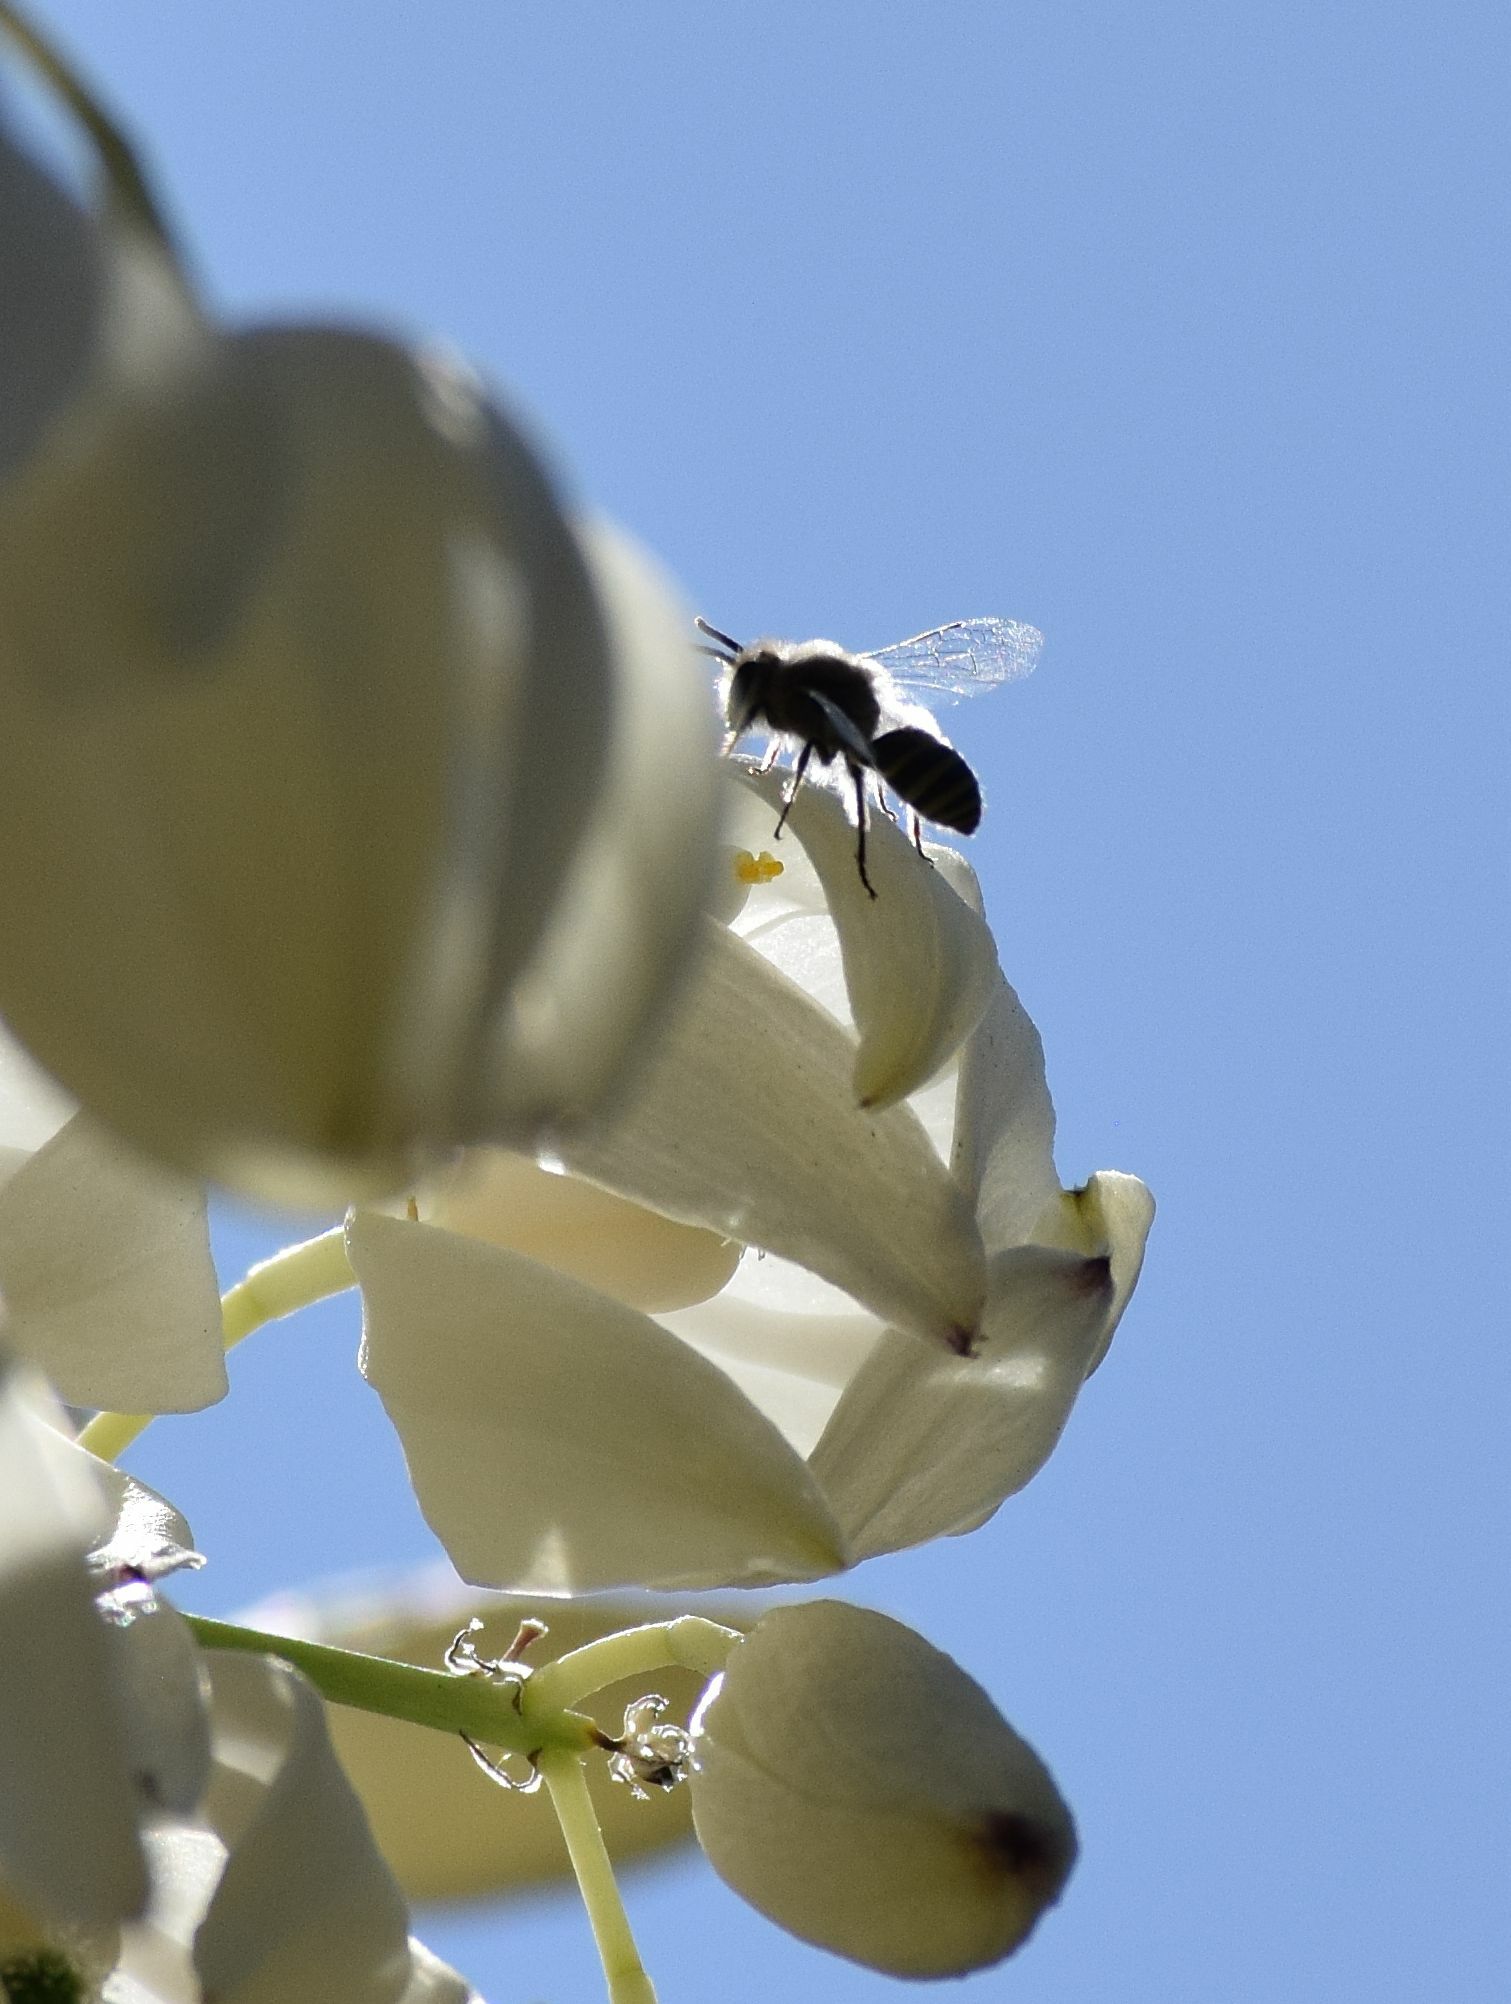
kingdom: Animalia
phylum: Arthropoda
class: Insecta
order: Hymenoptera
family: Colletidae
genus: Colletes
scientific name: Colletes
